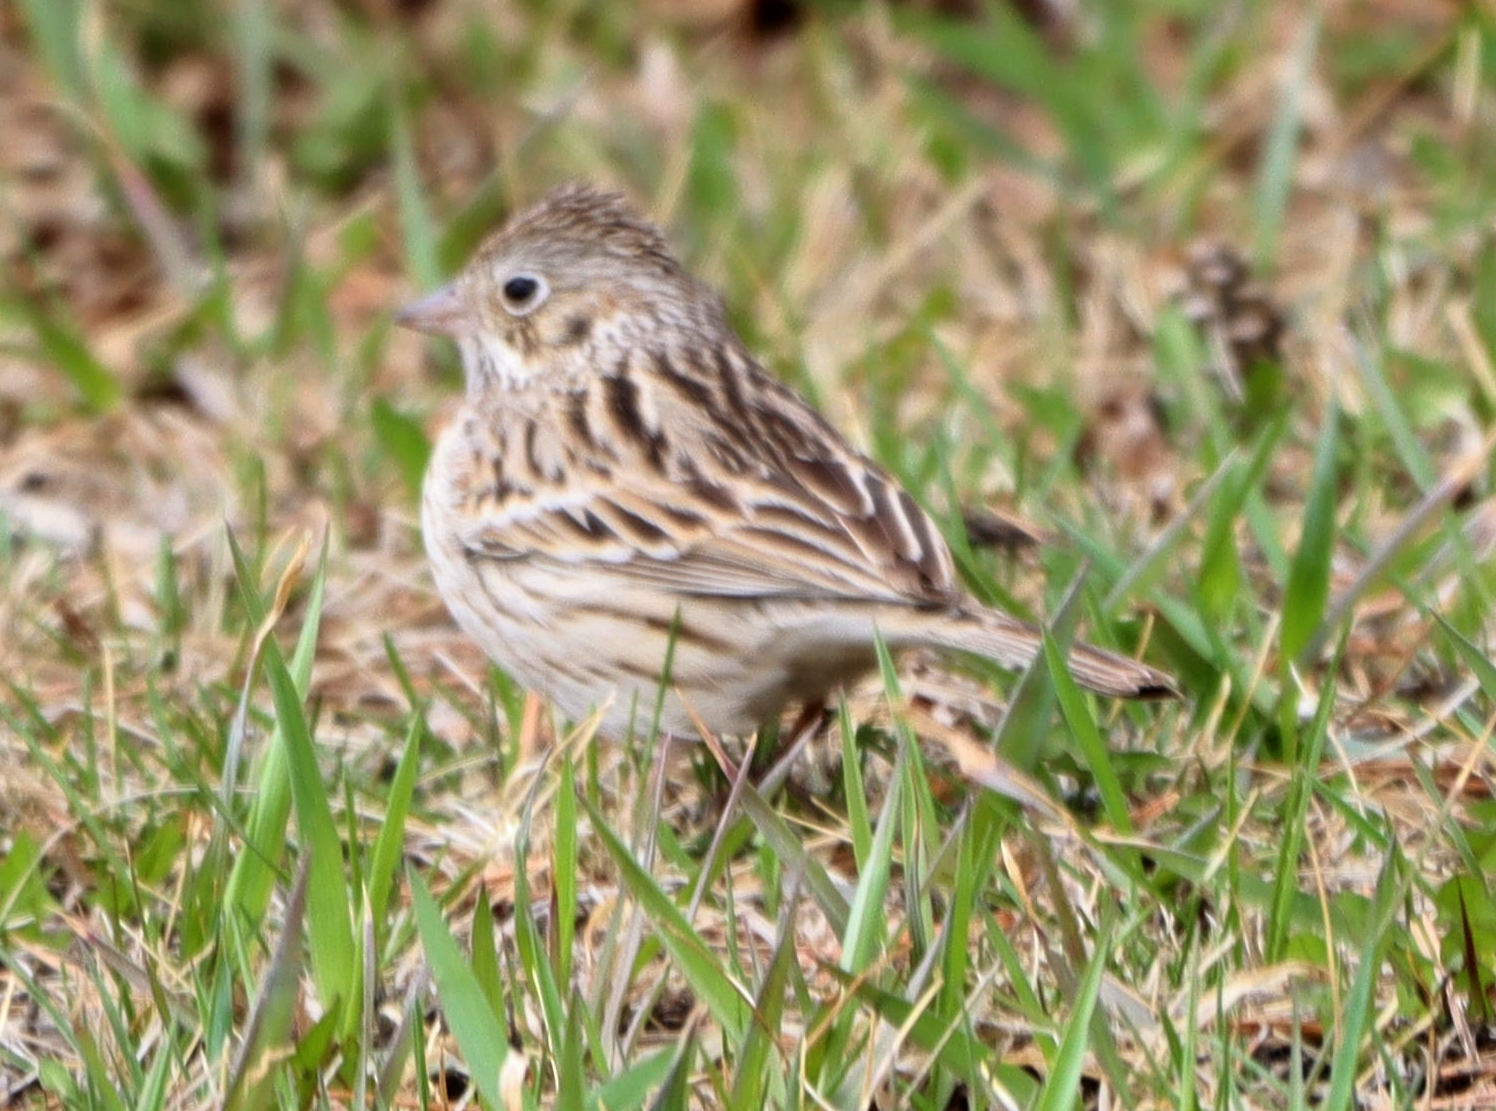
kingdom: Animalia
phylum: Chordata
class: Aves
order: Passeriformes
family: Passerellidae
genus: Pooecetes
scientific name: Pooecetes gramineus
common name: Vesper sparrow
